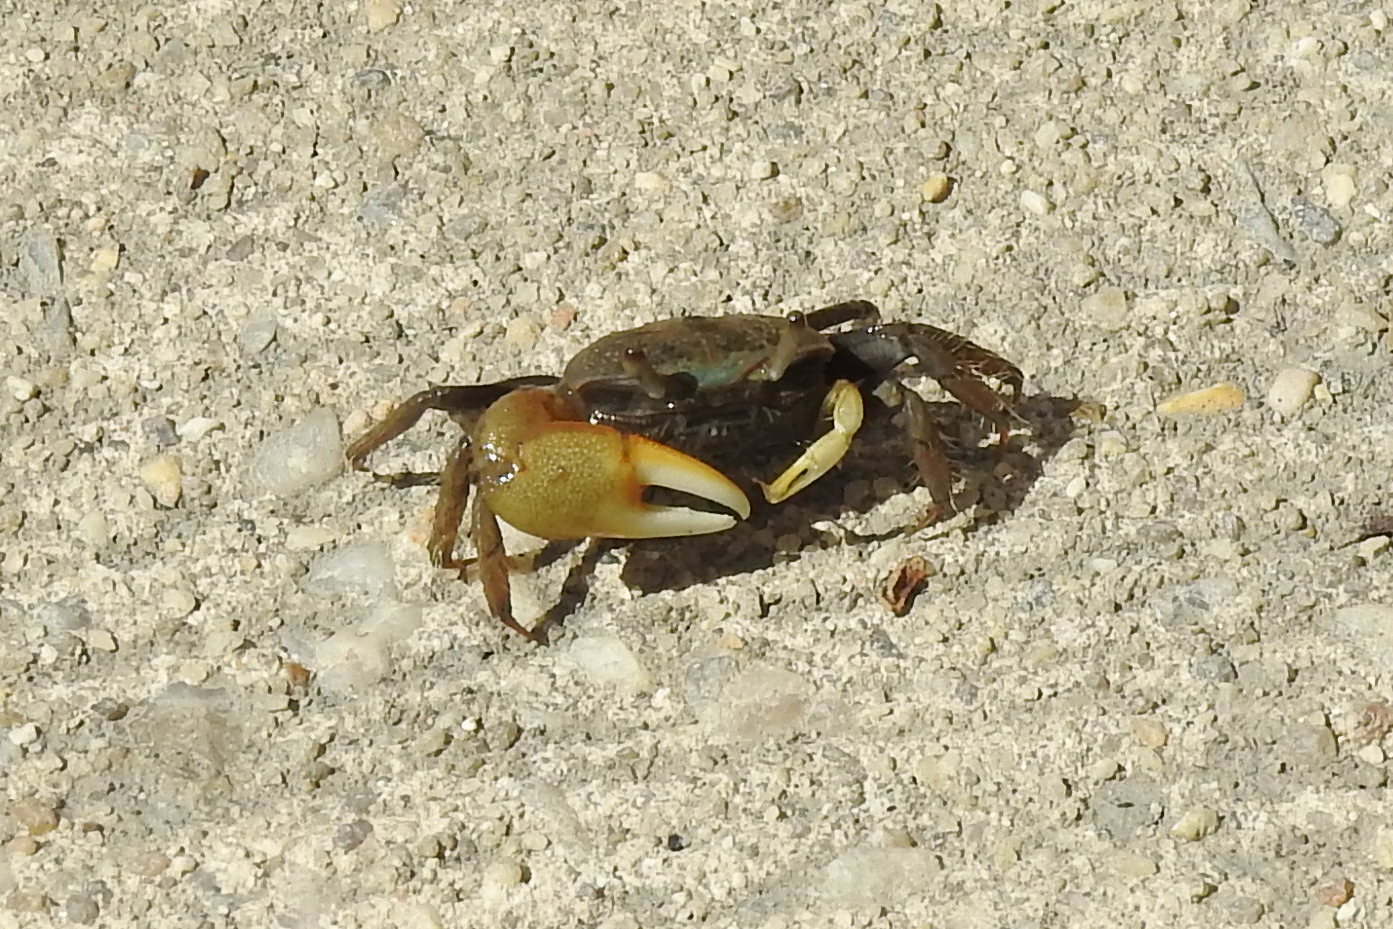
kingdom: Animalia
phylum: Arthropoda
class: Malacostraca
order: Decapoda
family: Ocypodidae
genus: Minuca
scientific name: Minuca pugnax
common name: Mud fiddler crab
